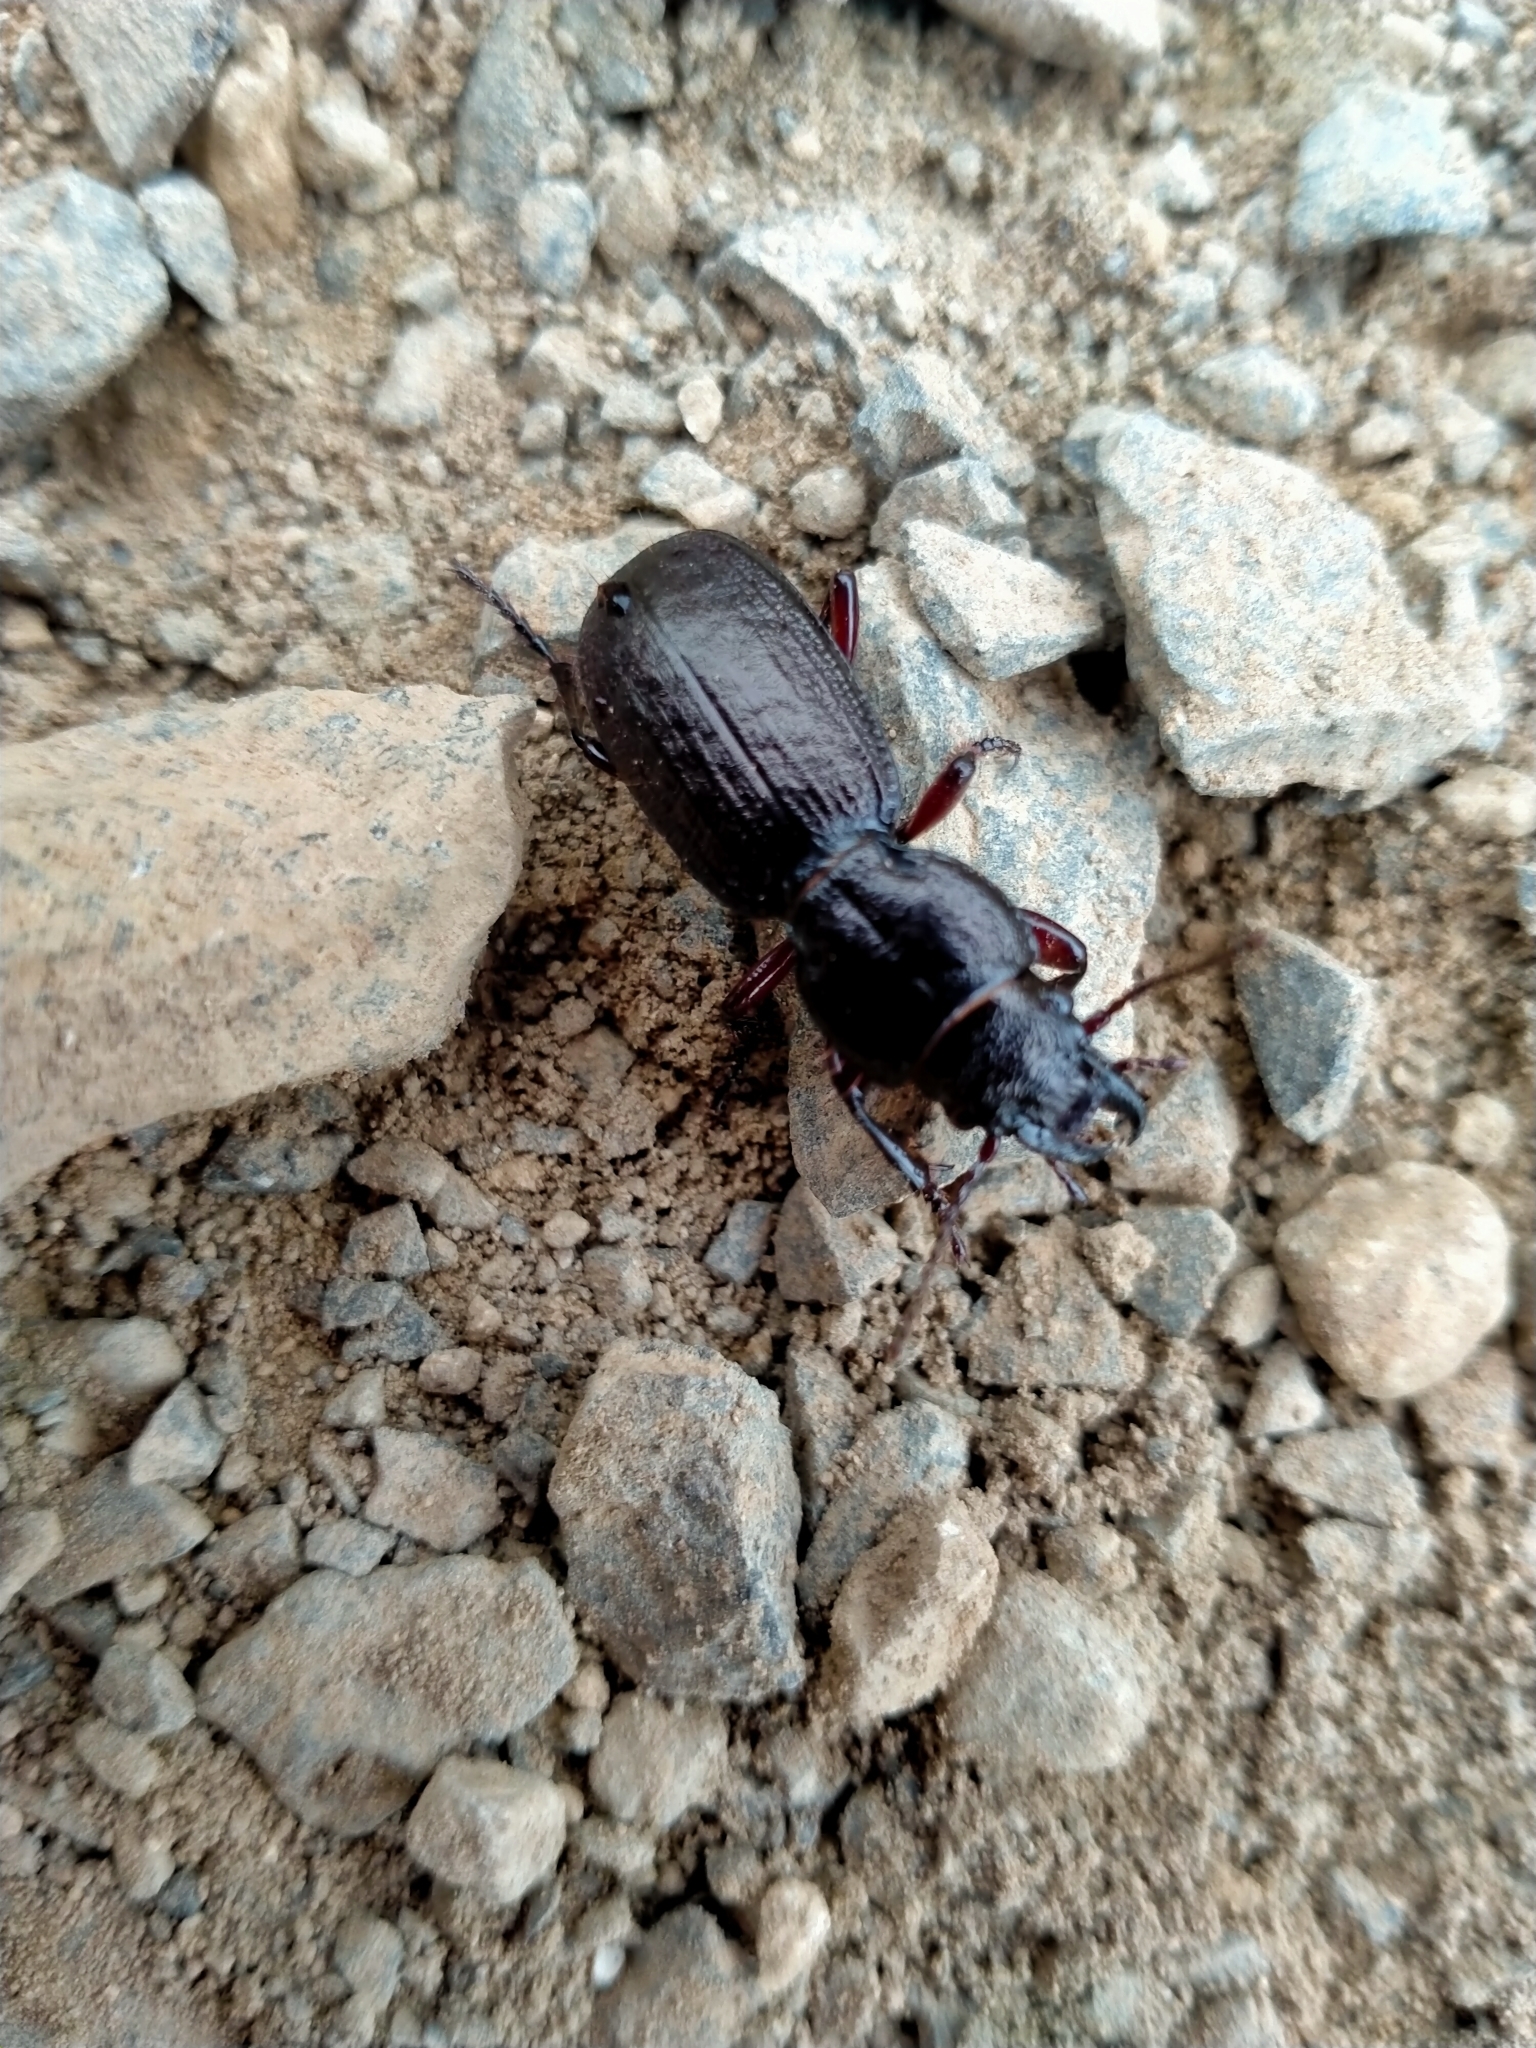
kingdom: Animalia
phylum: Arthropoda
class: Insecta
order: Coleoptera
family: Carabidae
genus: Mecodema
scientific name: Mecodema sculpturatum
